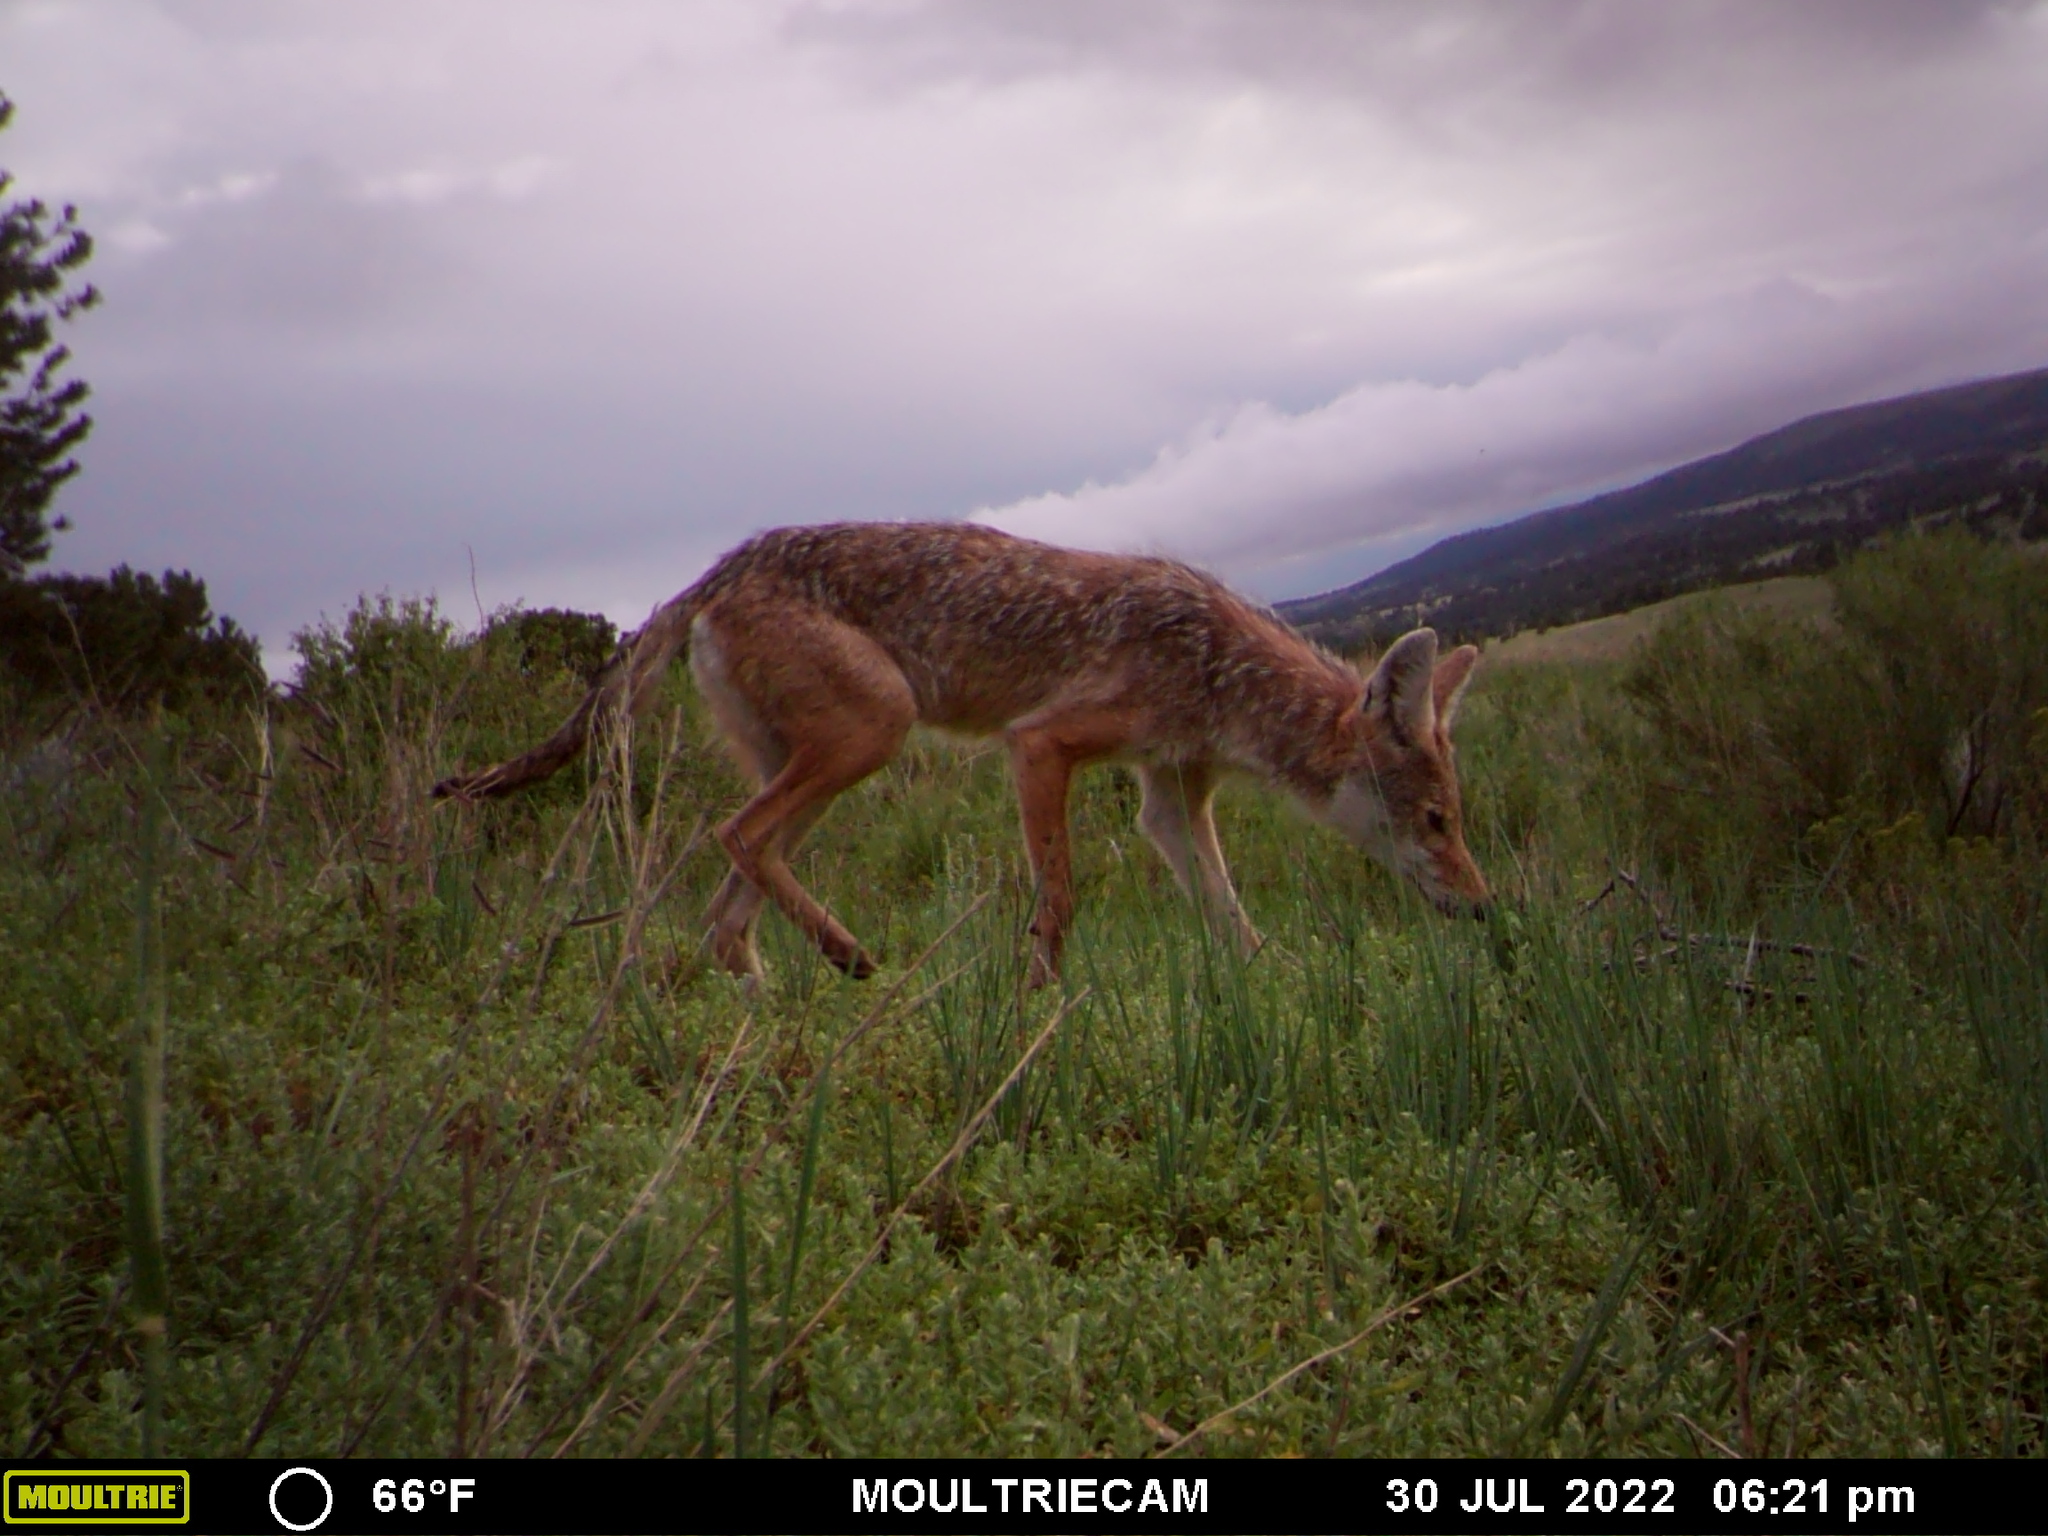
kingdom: Animalia
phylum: Chordata
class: Mammalia
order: Carnivora
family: Canidae
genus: Canis
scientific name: Canis latrans
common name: Coyote
